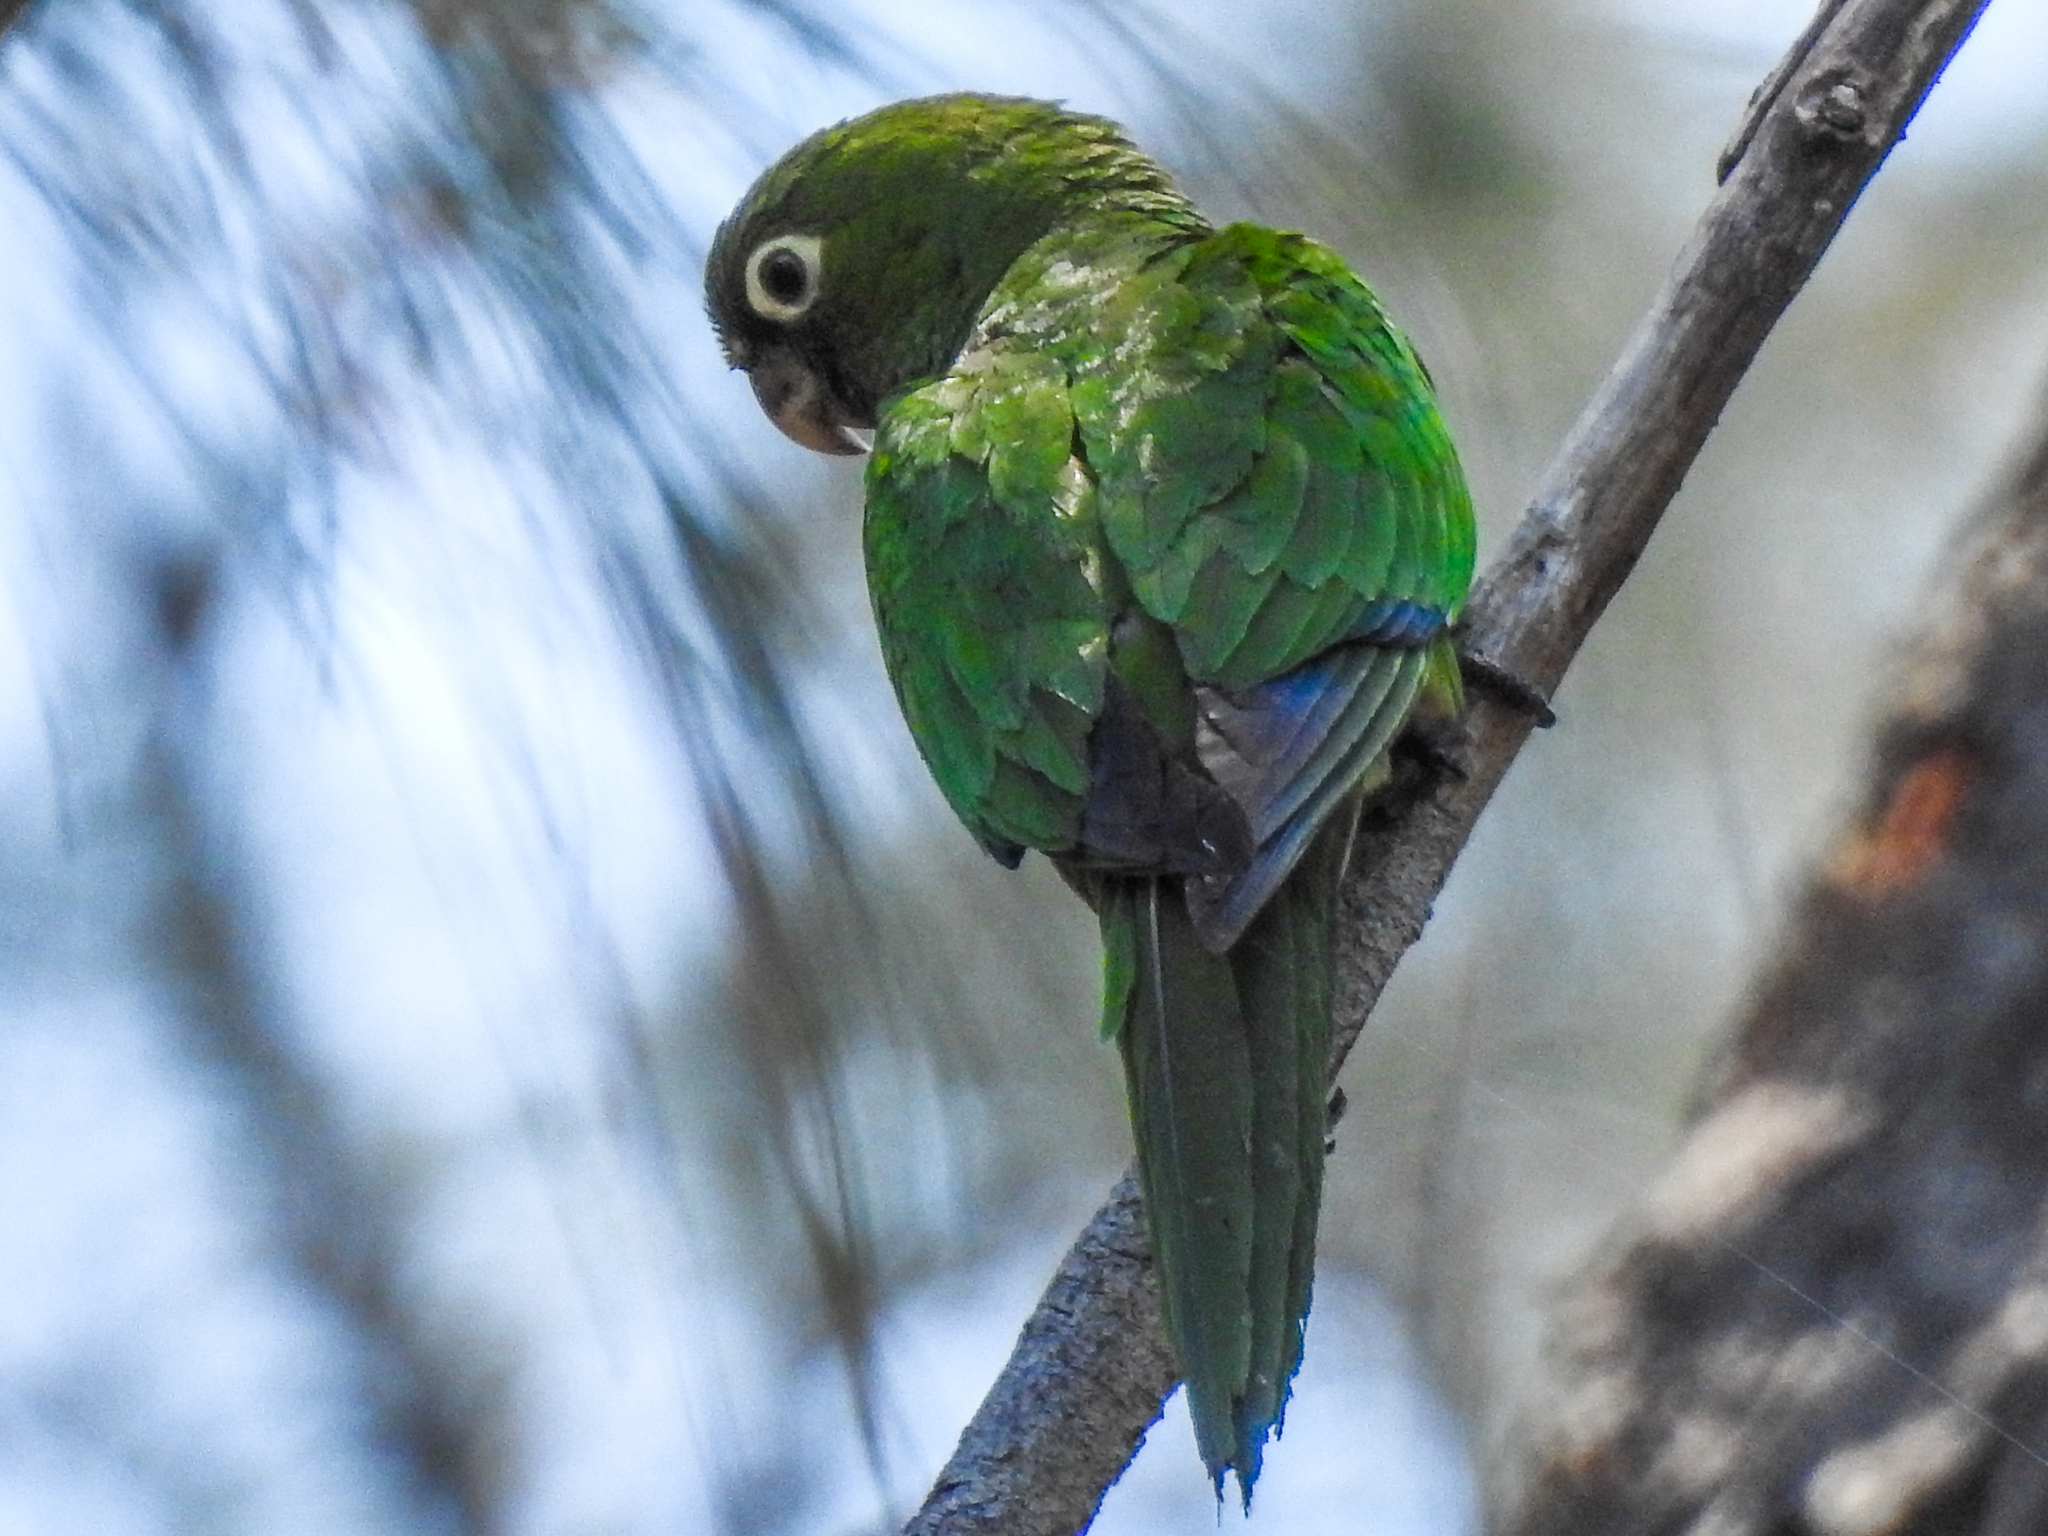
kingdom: Animalia
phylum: Chordata
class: Aves
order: Psittaciformes
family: Psittacidae
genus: Aratinga
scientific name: Aratinga nana
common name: Olive-throated parakeet
